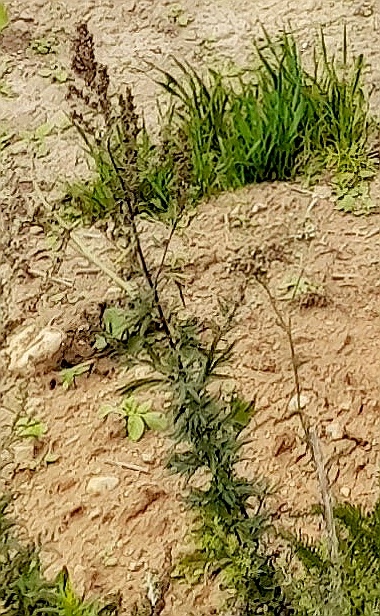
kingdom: Plantae
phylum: Tracheophyta
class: Magnoliopsida
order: Asterales
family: Asteraceae
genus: Artemisia
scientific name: Artemisia vulgaris
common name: Mugwort
